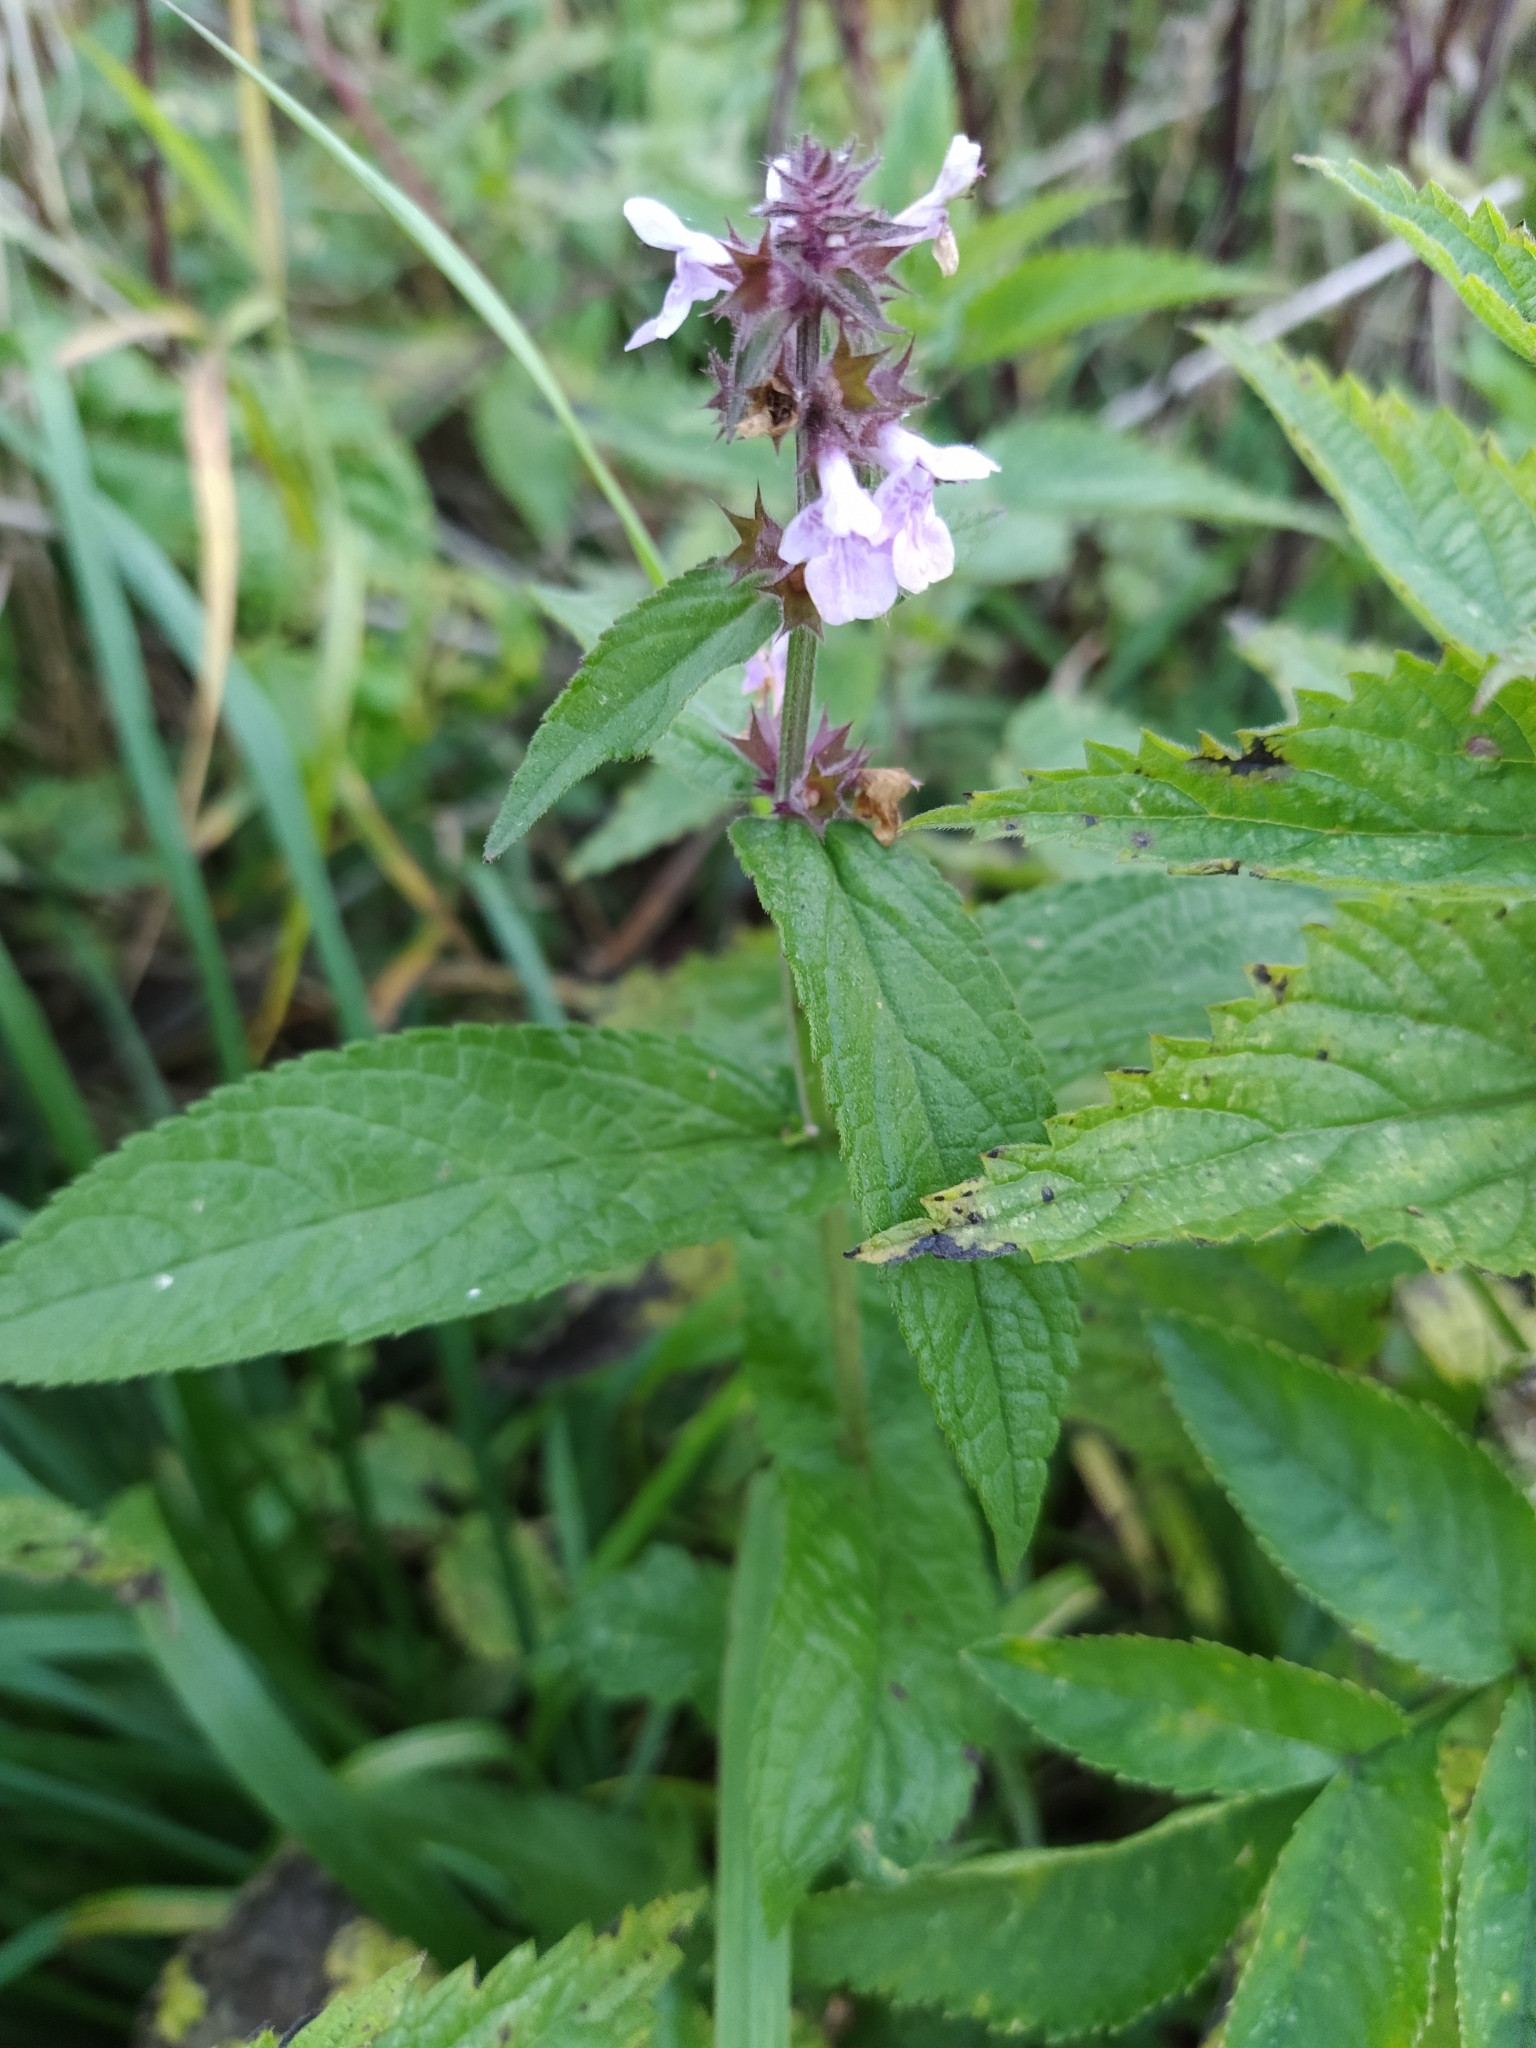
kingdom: Plantae
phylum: Tracheophyta
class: Magnoliopsida
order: Lamiales
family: Lamiaceae
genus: Stachys
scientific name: Stachys palustris
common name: Marsh woundwort
